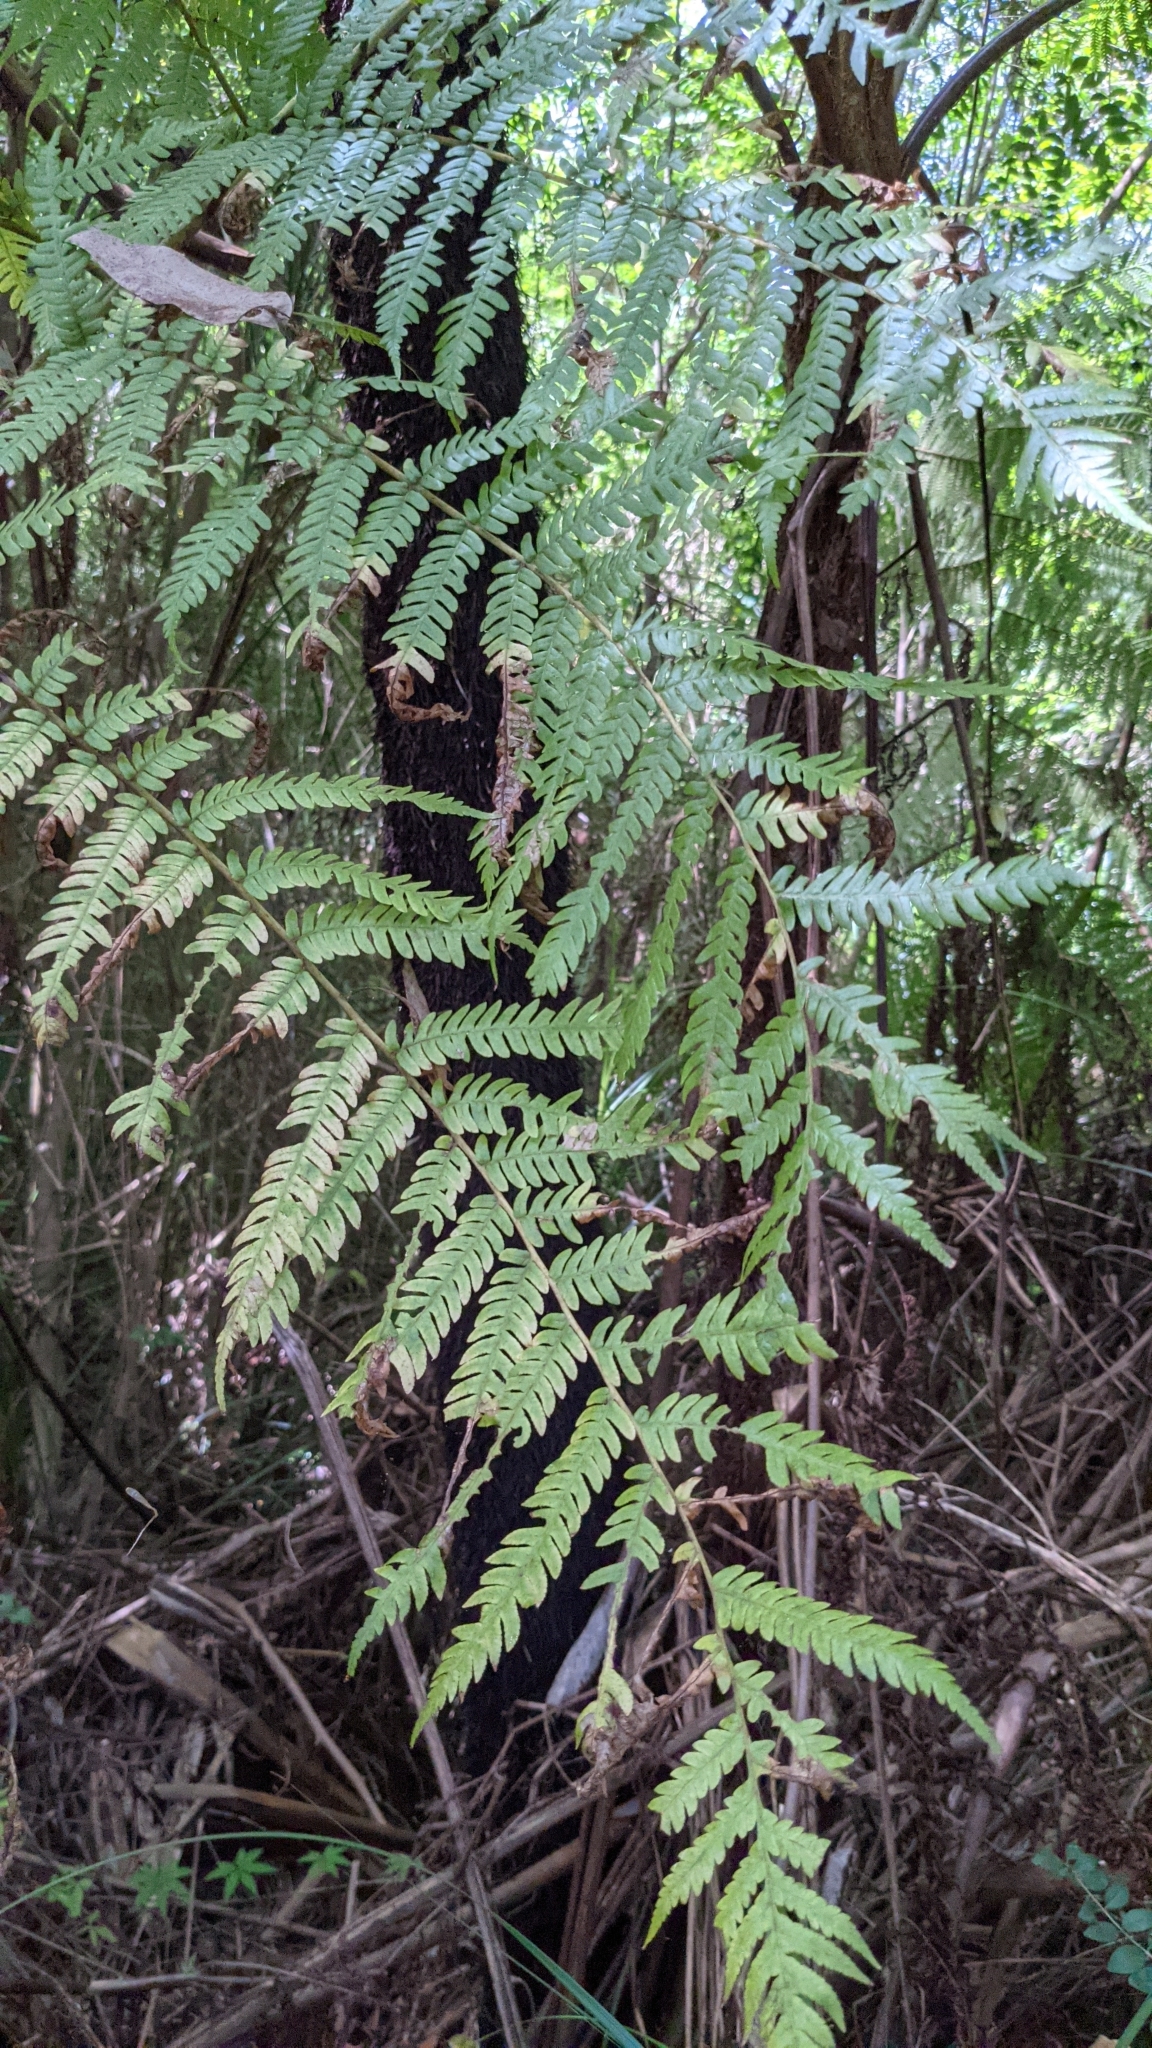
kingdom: Plantae
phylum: Tracheophyta
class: Polypodiopsida
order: Cyatheales
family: Cyatheaceae
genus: Sphaeropteris
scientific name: Sphaeropteris cooperi
